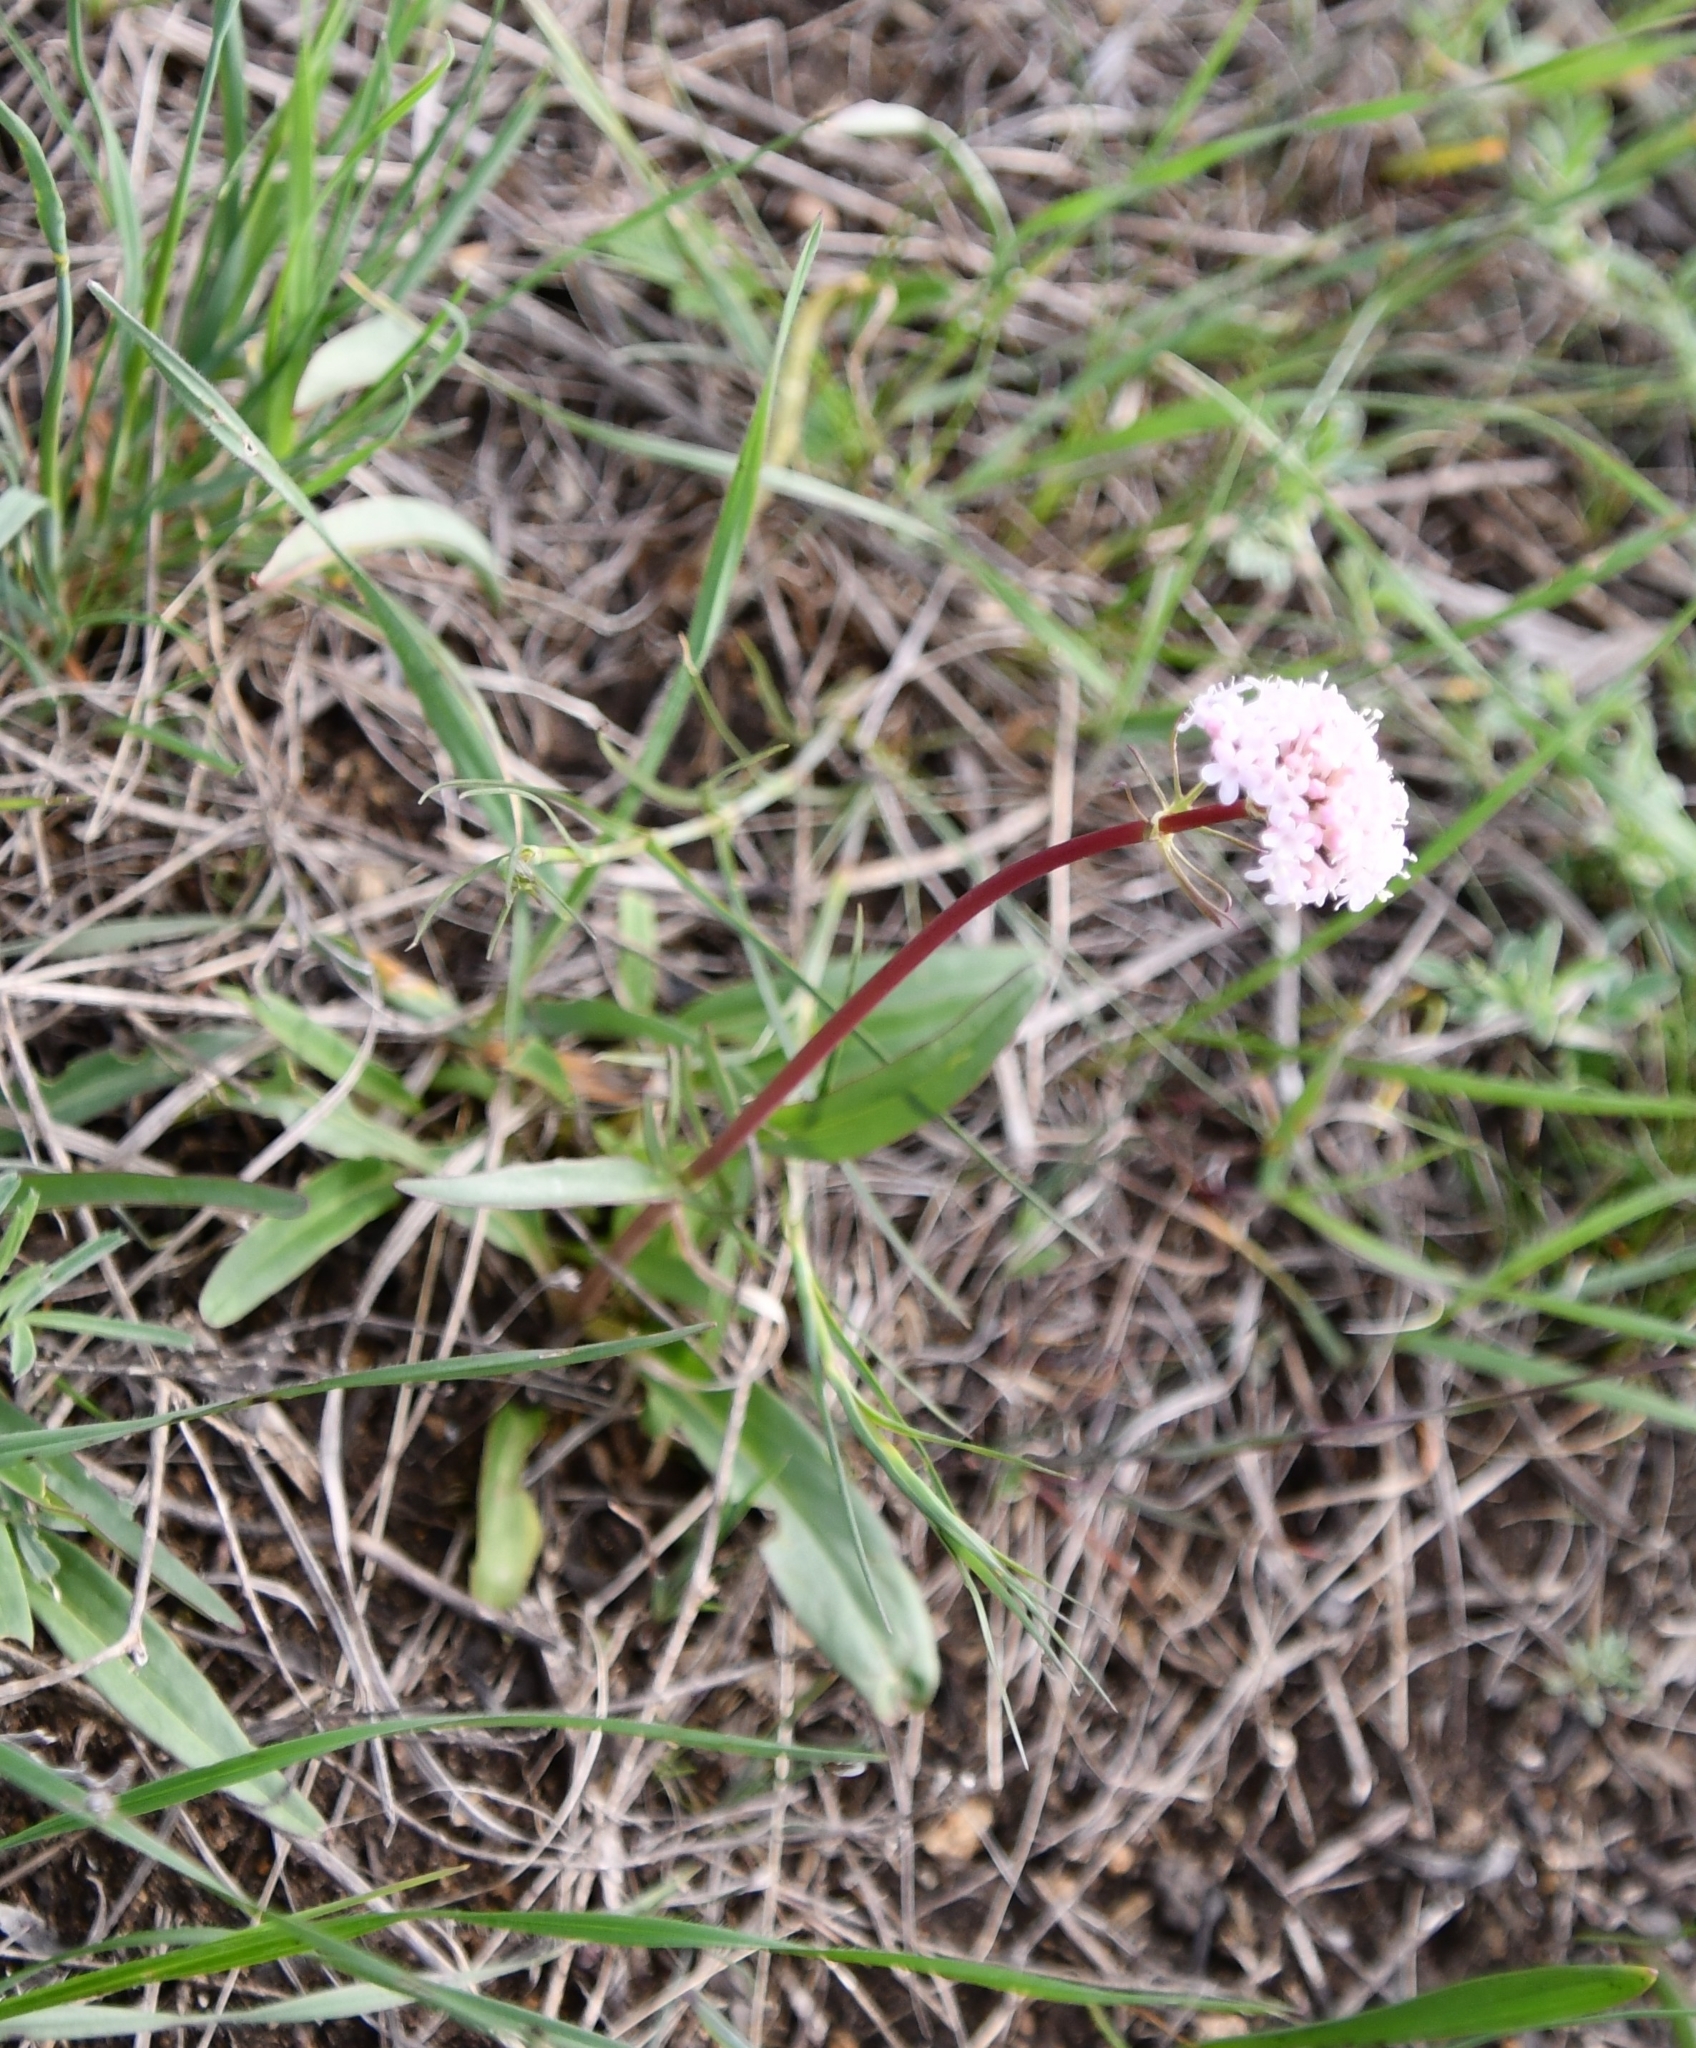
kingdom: Plantae
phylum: Tracheophyta
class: Magnoliopsida
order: Dipsacales
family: Caprifoliaceae
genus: Valeriana
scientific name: Valeriana tuberosa
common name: Tuberous valerian
